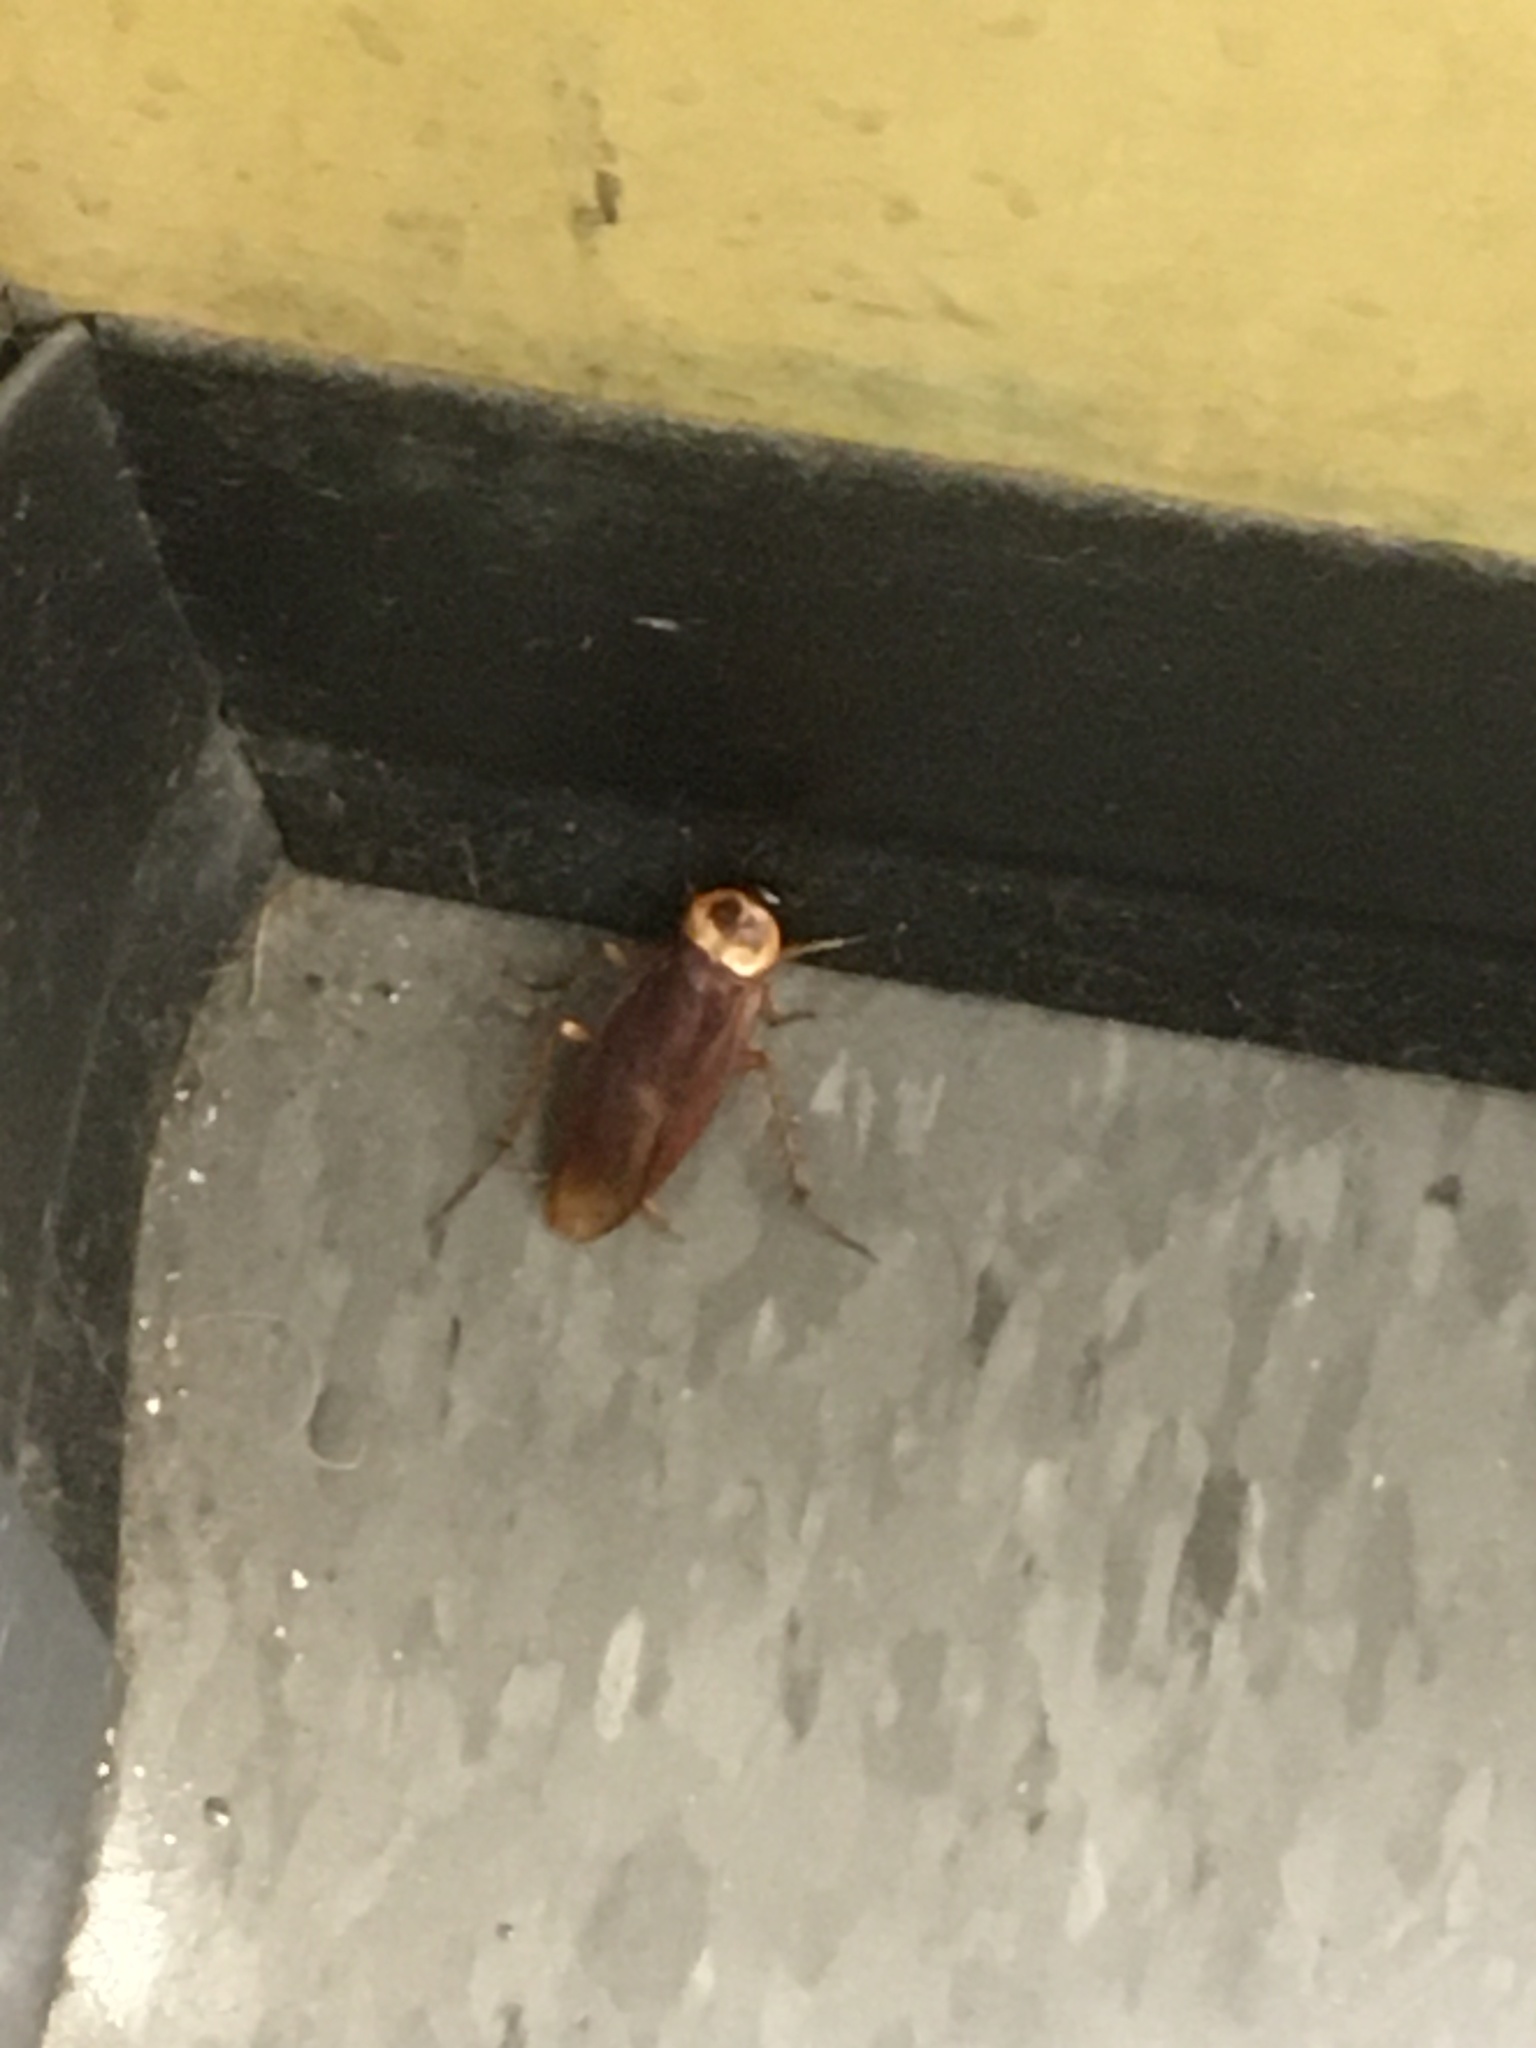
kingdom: Animalia
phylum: Arthropoda
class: Insecta
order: Blattodea
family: Blattidae
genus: Periplaneta
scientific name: Periplaneta americana
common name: American cockroach
